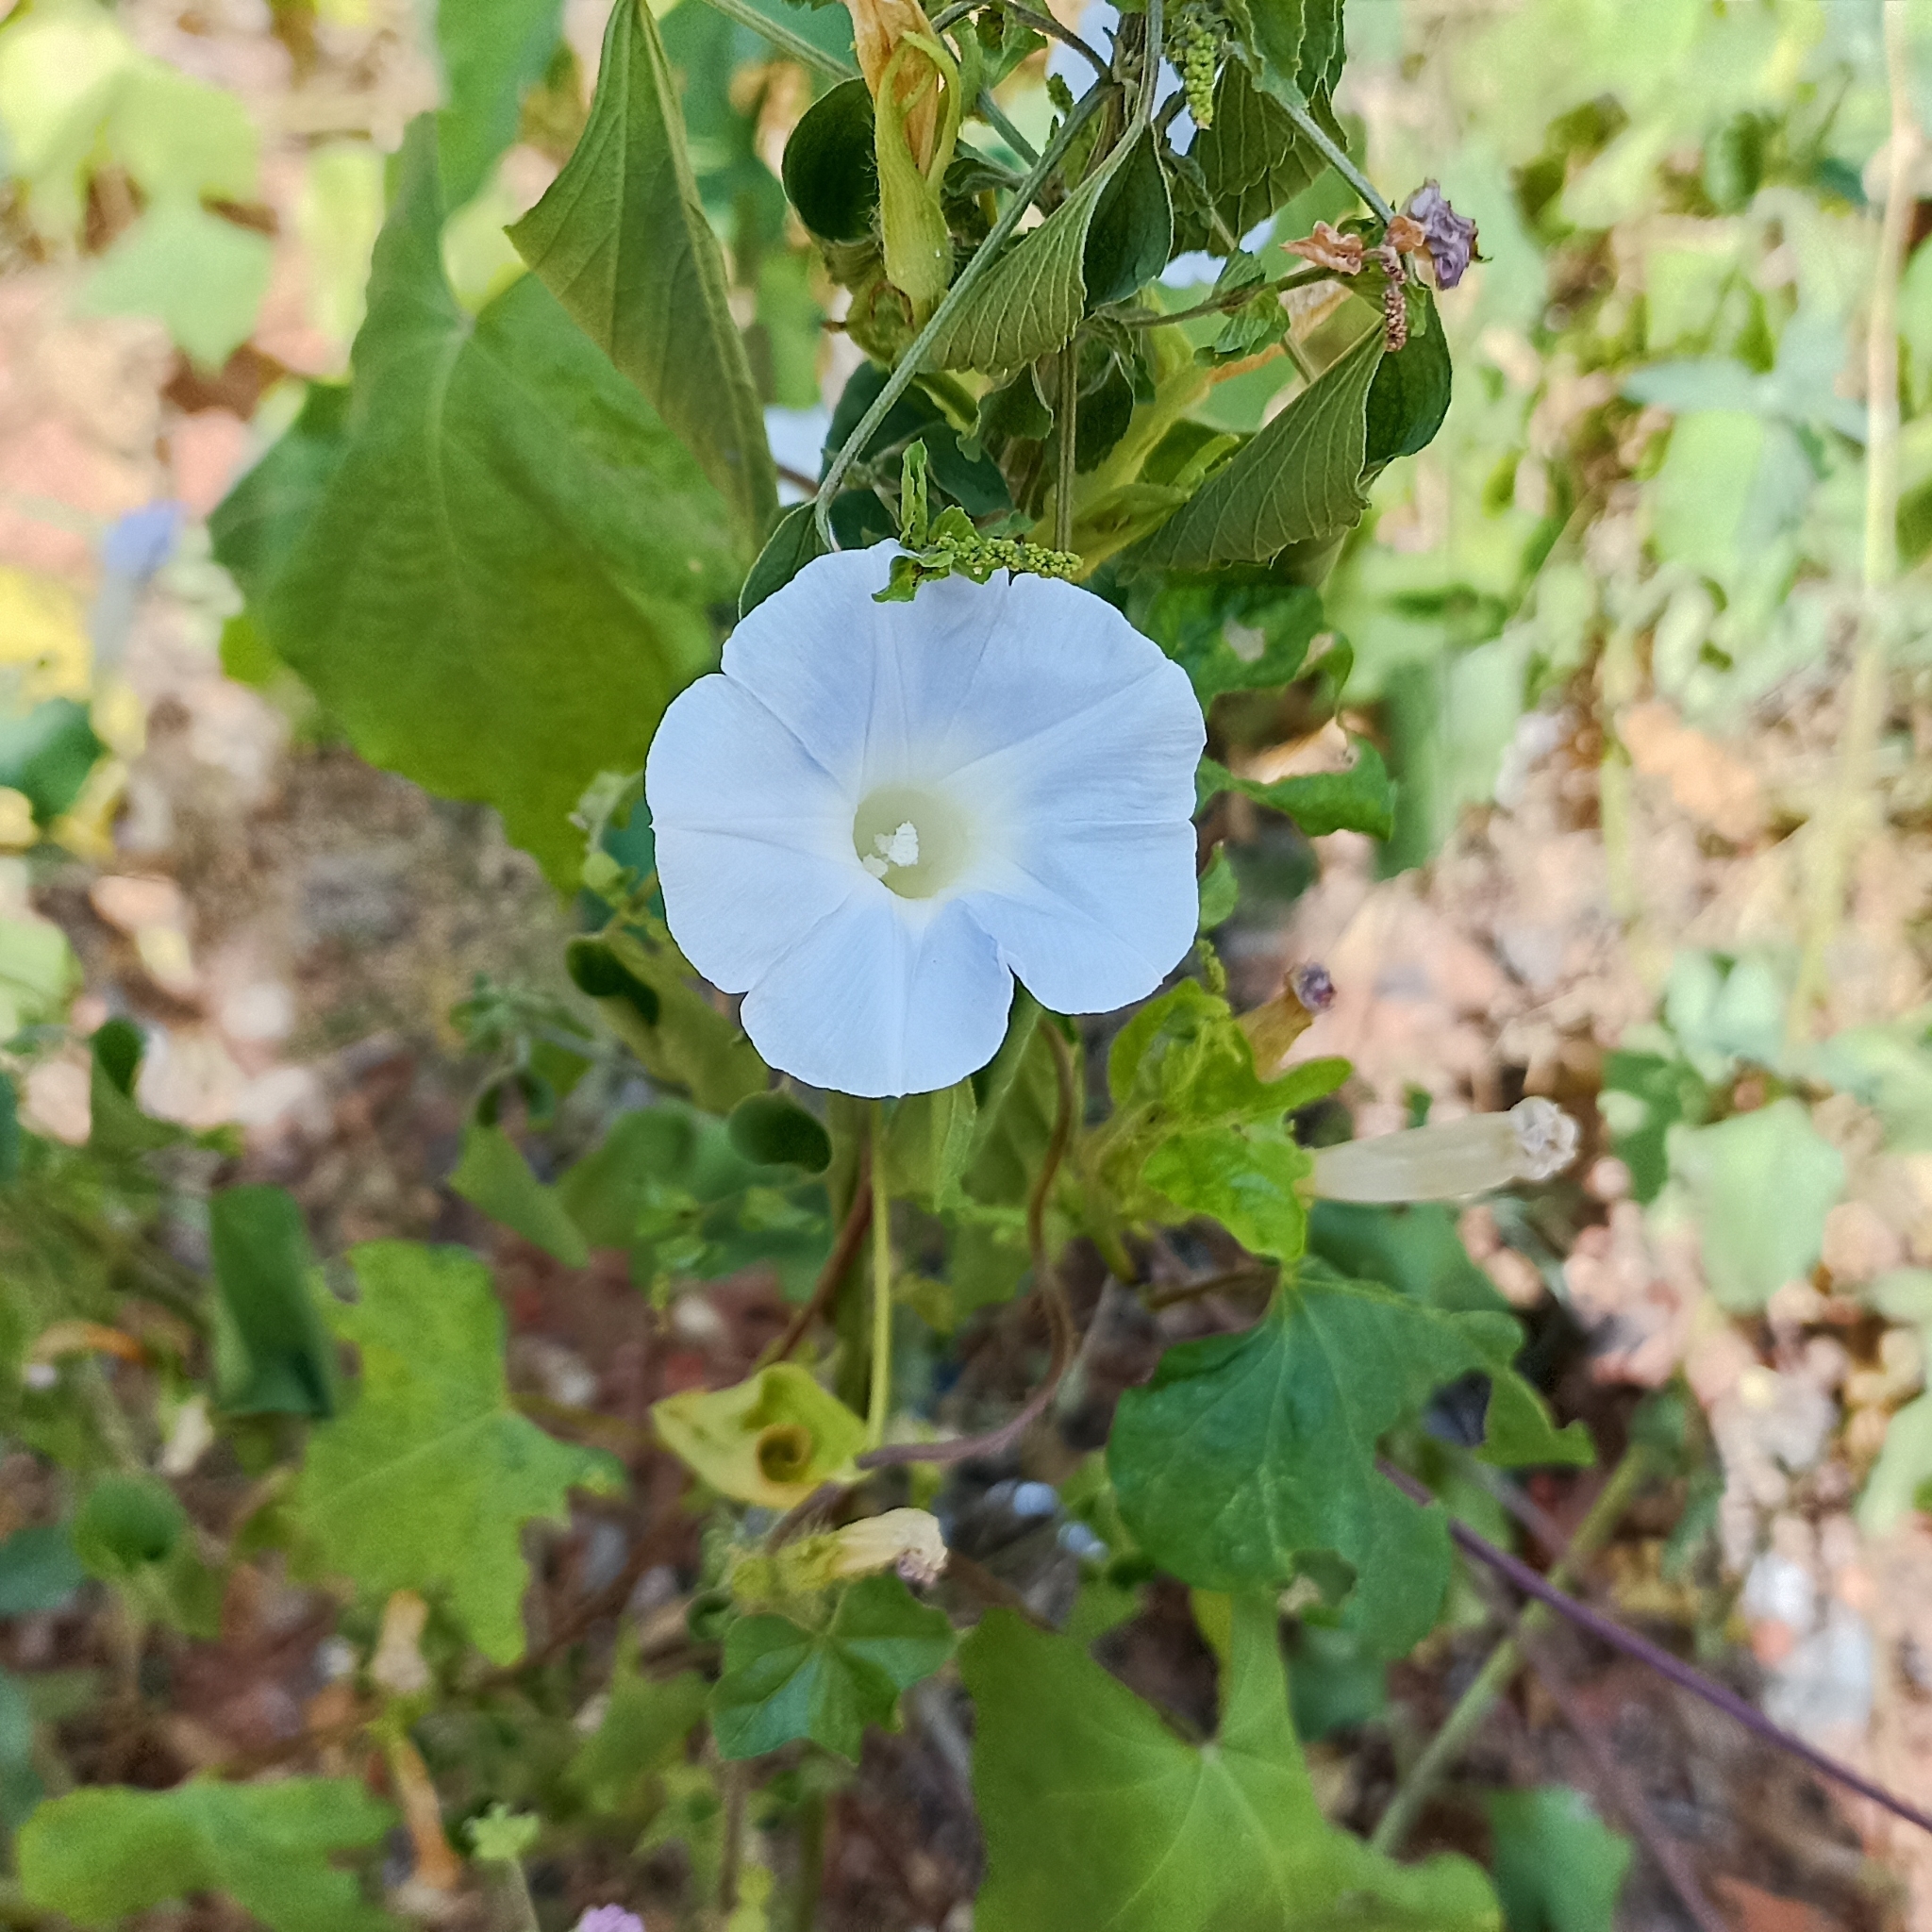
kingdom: Plantae
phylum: Tracheophyta
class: Magnoliopsida
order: Solanales
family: Convolvulaceae
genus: Ipomoea
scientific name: Ipomoea nil
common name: Japanese morning-glory
